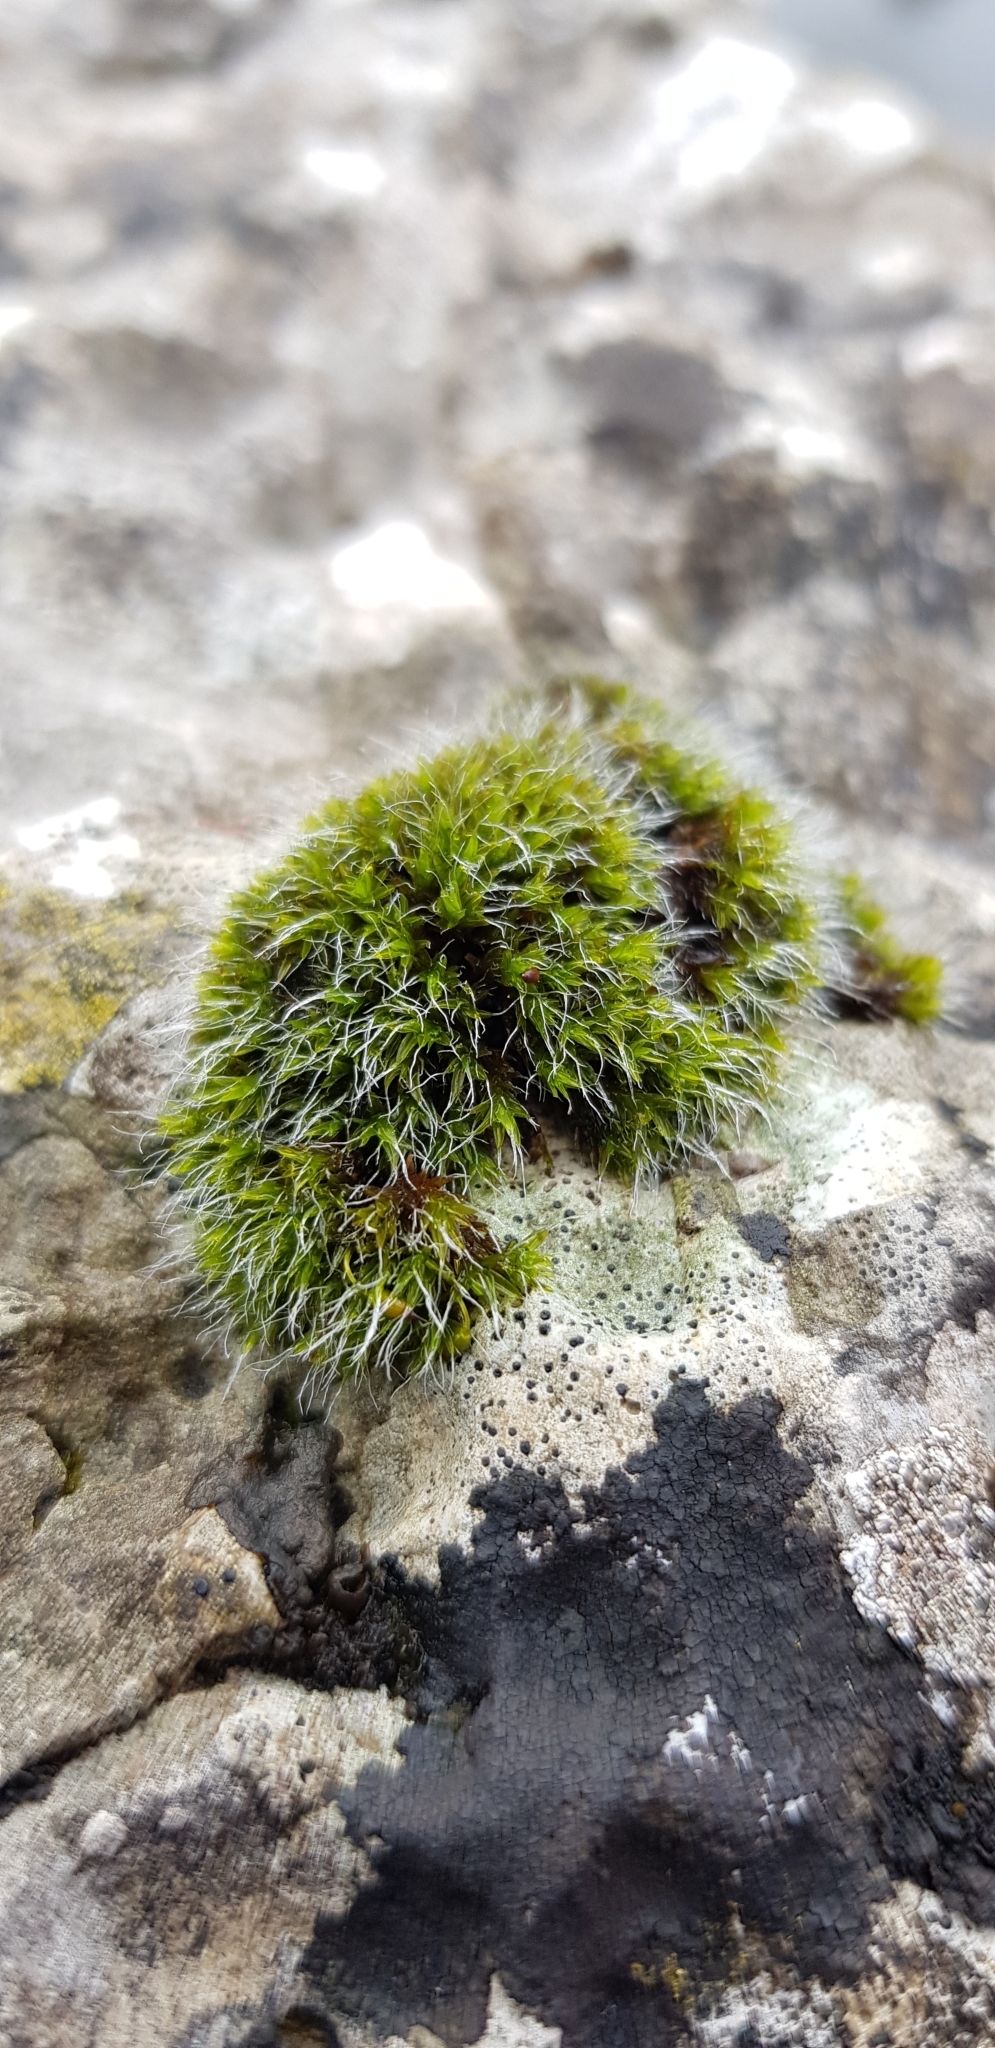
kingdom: Plantae
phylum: Bryophyta
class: Bryopsida
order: Grimmiales
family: Grimmiaceae
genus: Grimmia
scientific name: Grimmia pulvinata
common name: Grey-cushioned grimmia
